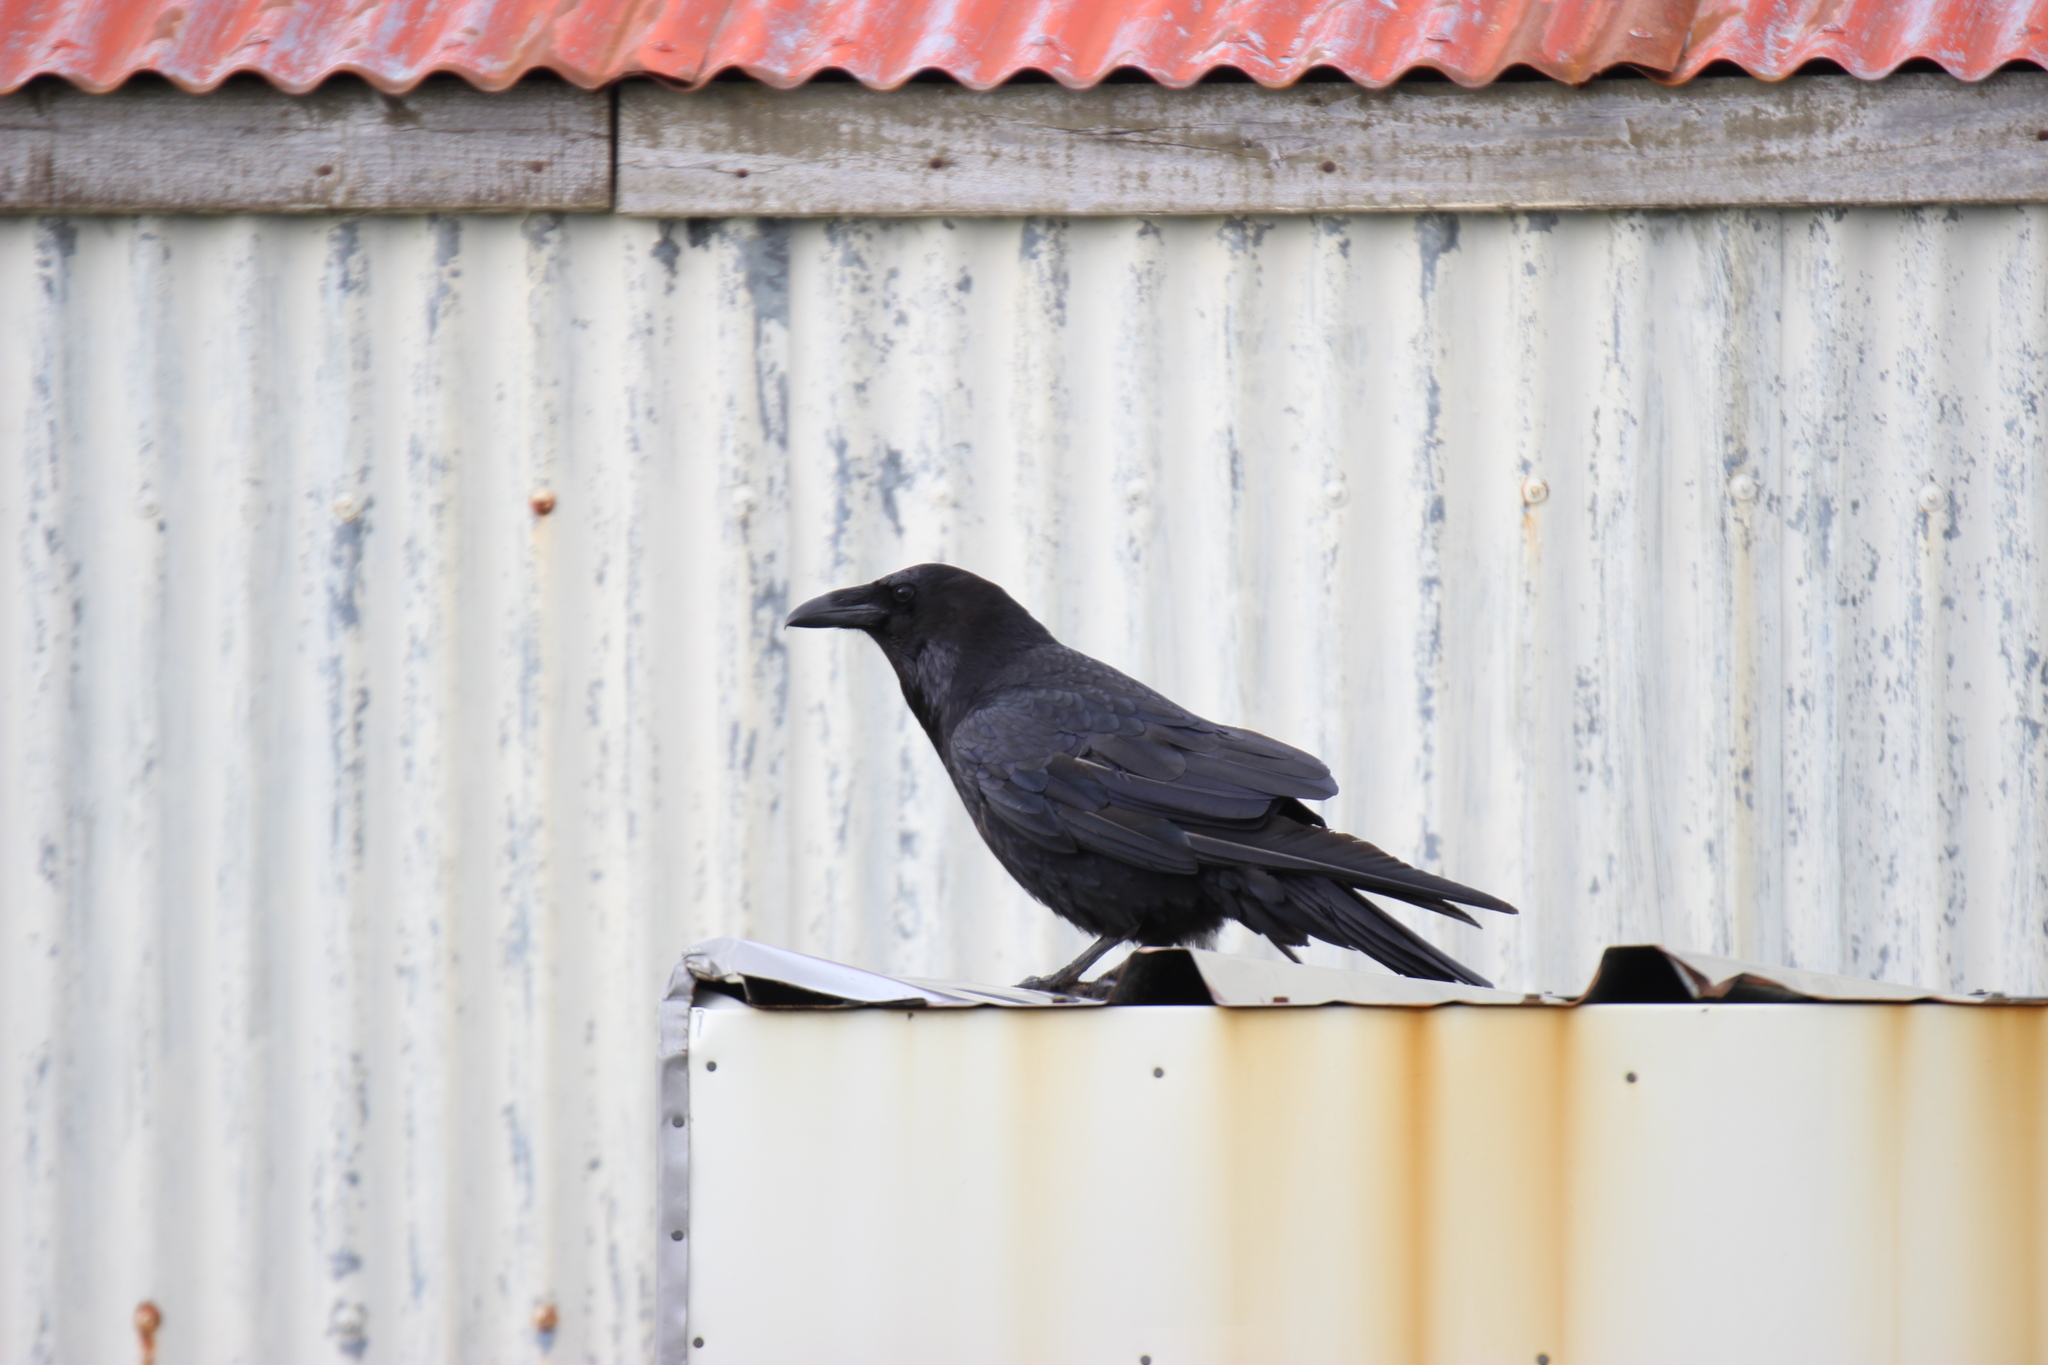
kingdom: Animalia
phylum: Chordata
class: Aves
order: Passeriformes
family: Corvidae
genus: Corvus
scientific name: Corvus corax
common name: Common raven
